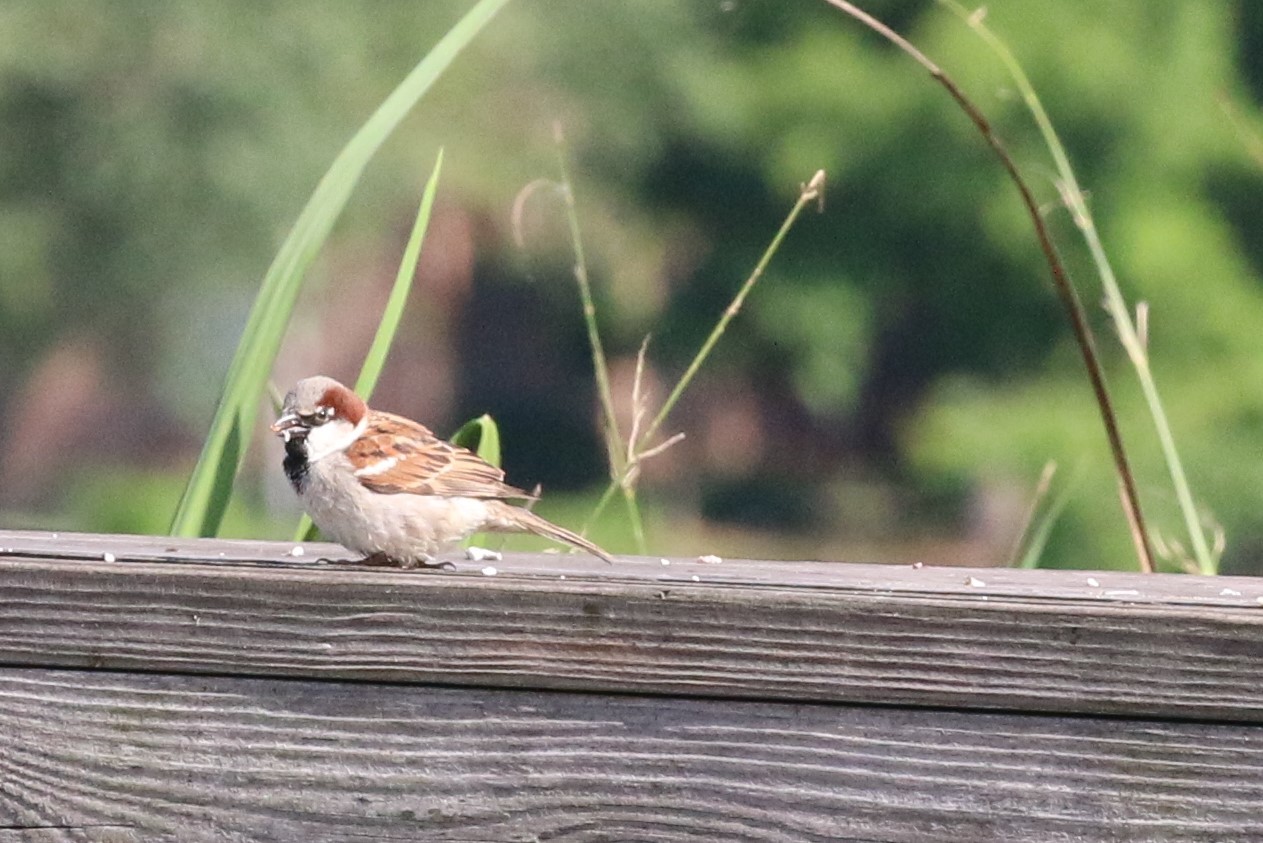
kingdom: Animalia
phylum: Chordata
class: Aves
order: Passeriformes
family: Passeridae
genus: Passer
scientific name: Passer domesticus
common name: House sparrow
